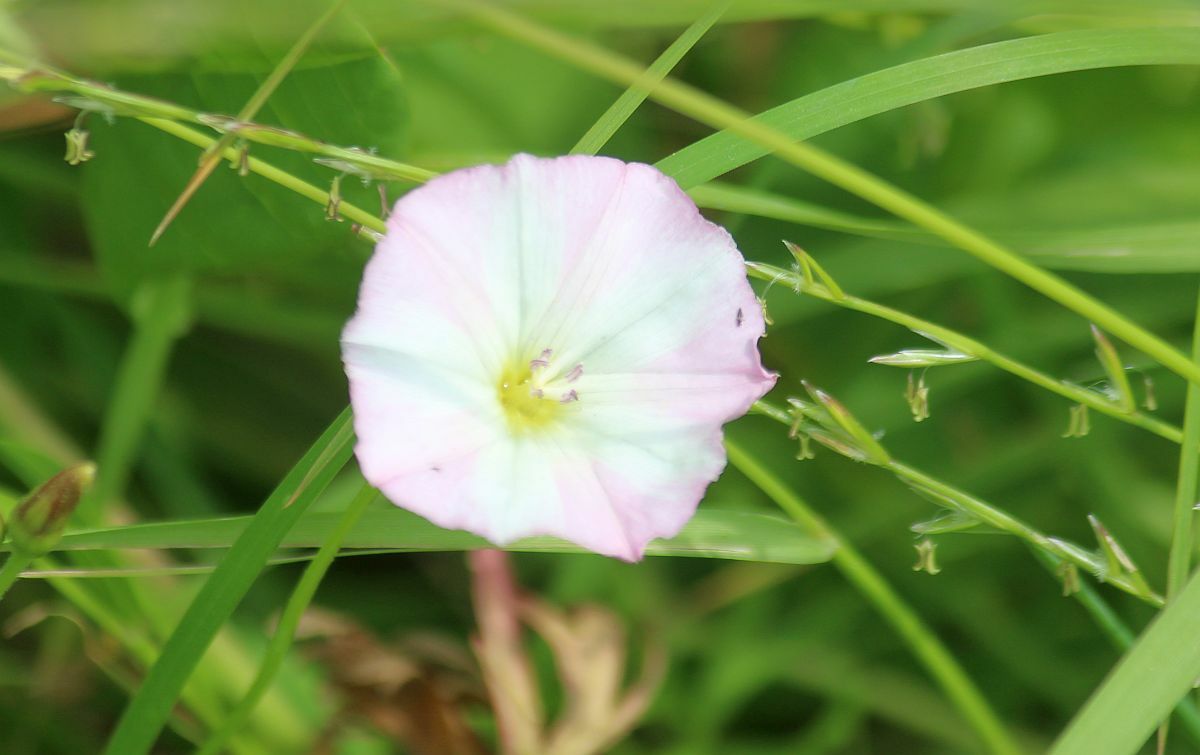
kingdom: Plantae
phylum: Tracheophyta
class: Magnoliopsida
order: Solanales
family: Convolvulaceae
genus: Convolvulus
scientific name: Convolvulus arvensis
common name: Field bindweed
